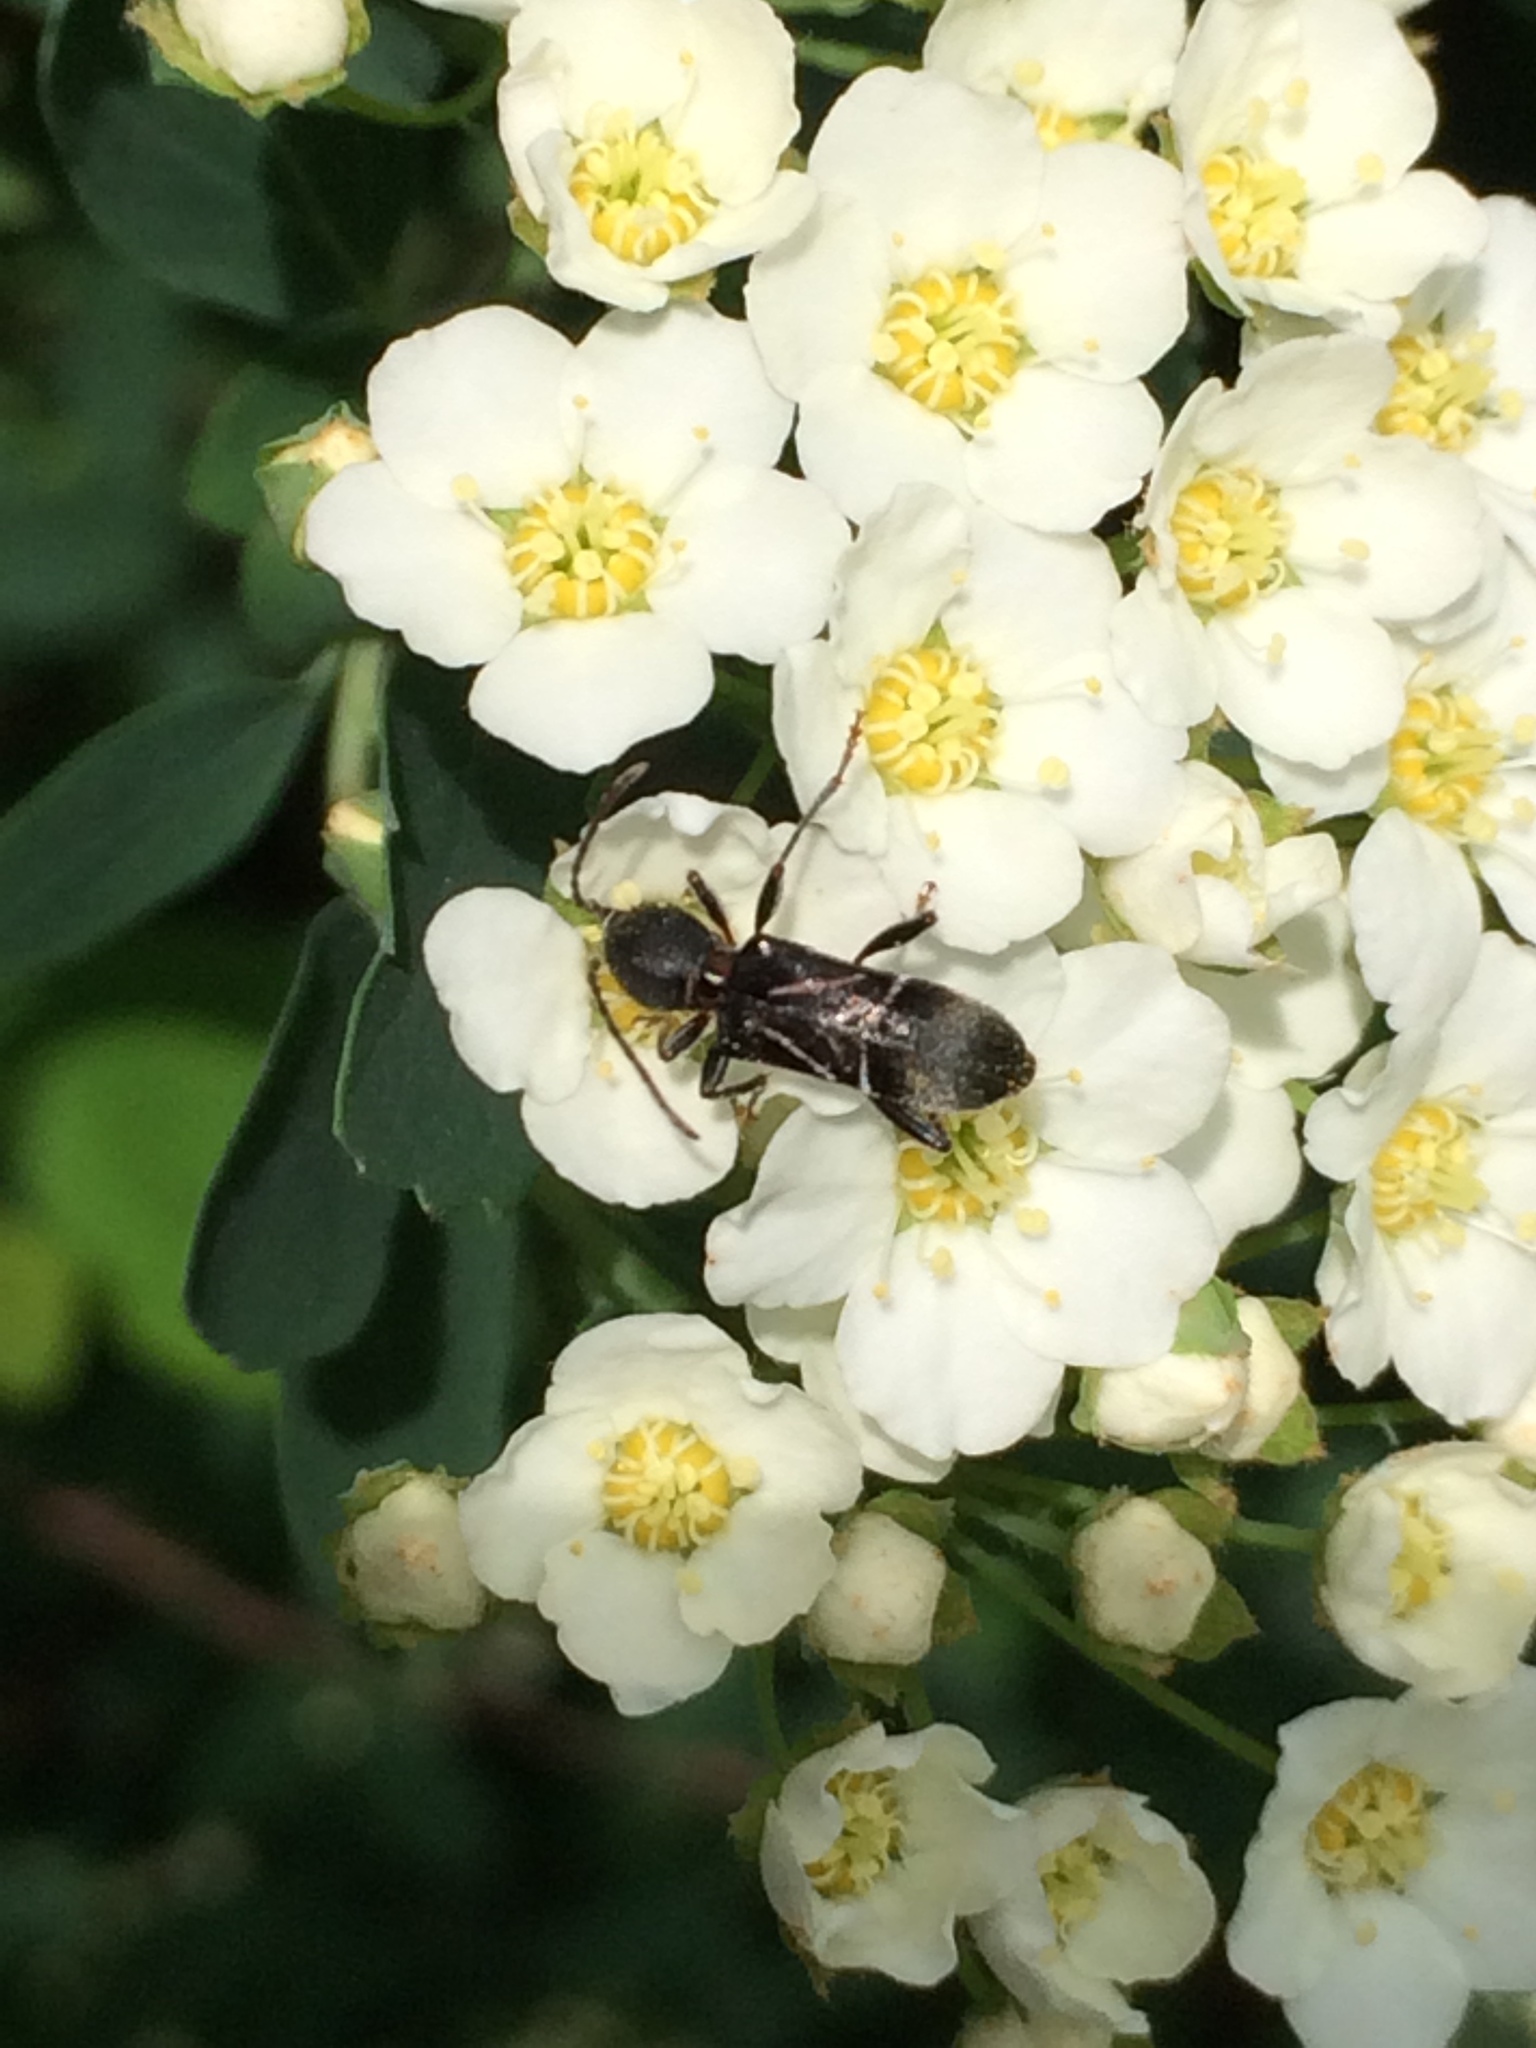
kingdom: Animalia
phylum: Arthropoda
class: Insecta
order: Coleoptera
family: Cerambycidae
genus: Cyrtophorus
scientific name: Cyrtophorus verrucosus
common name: Ant-like longhorn beetle
